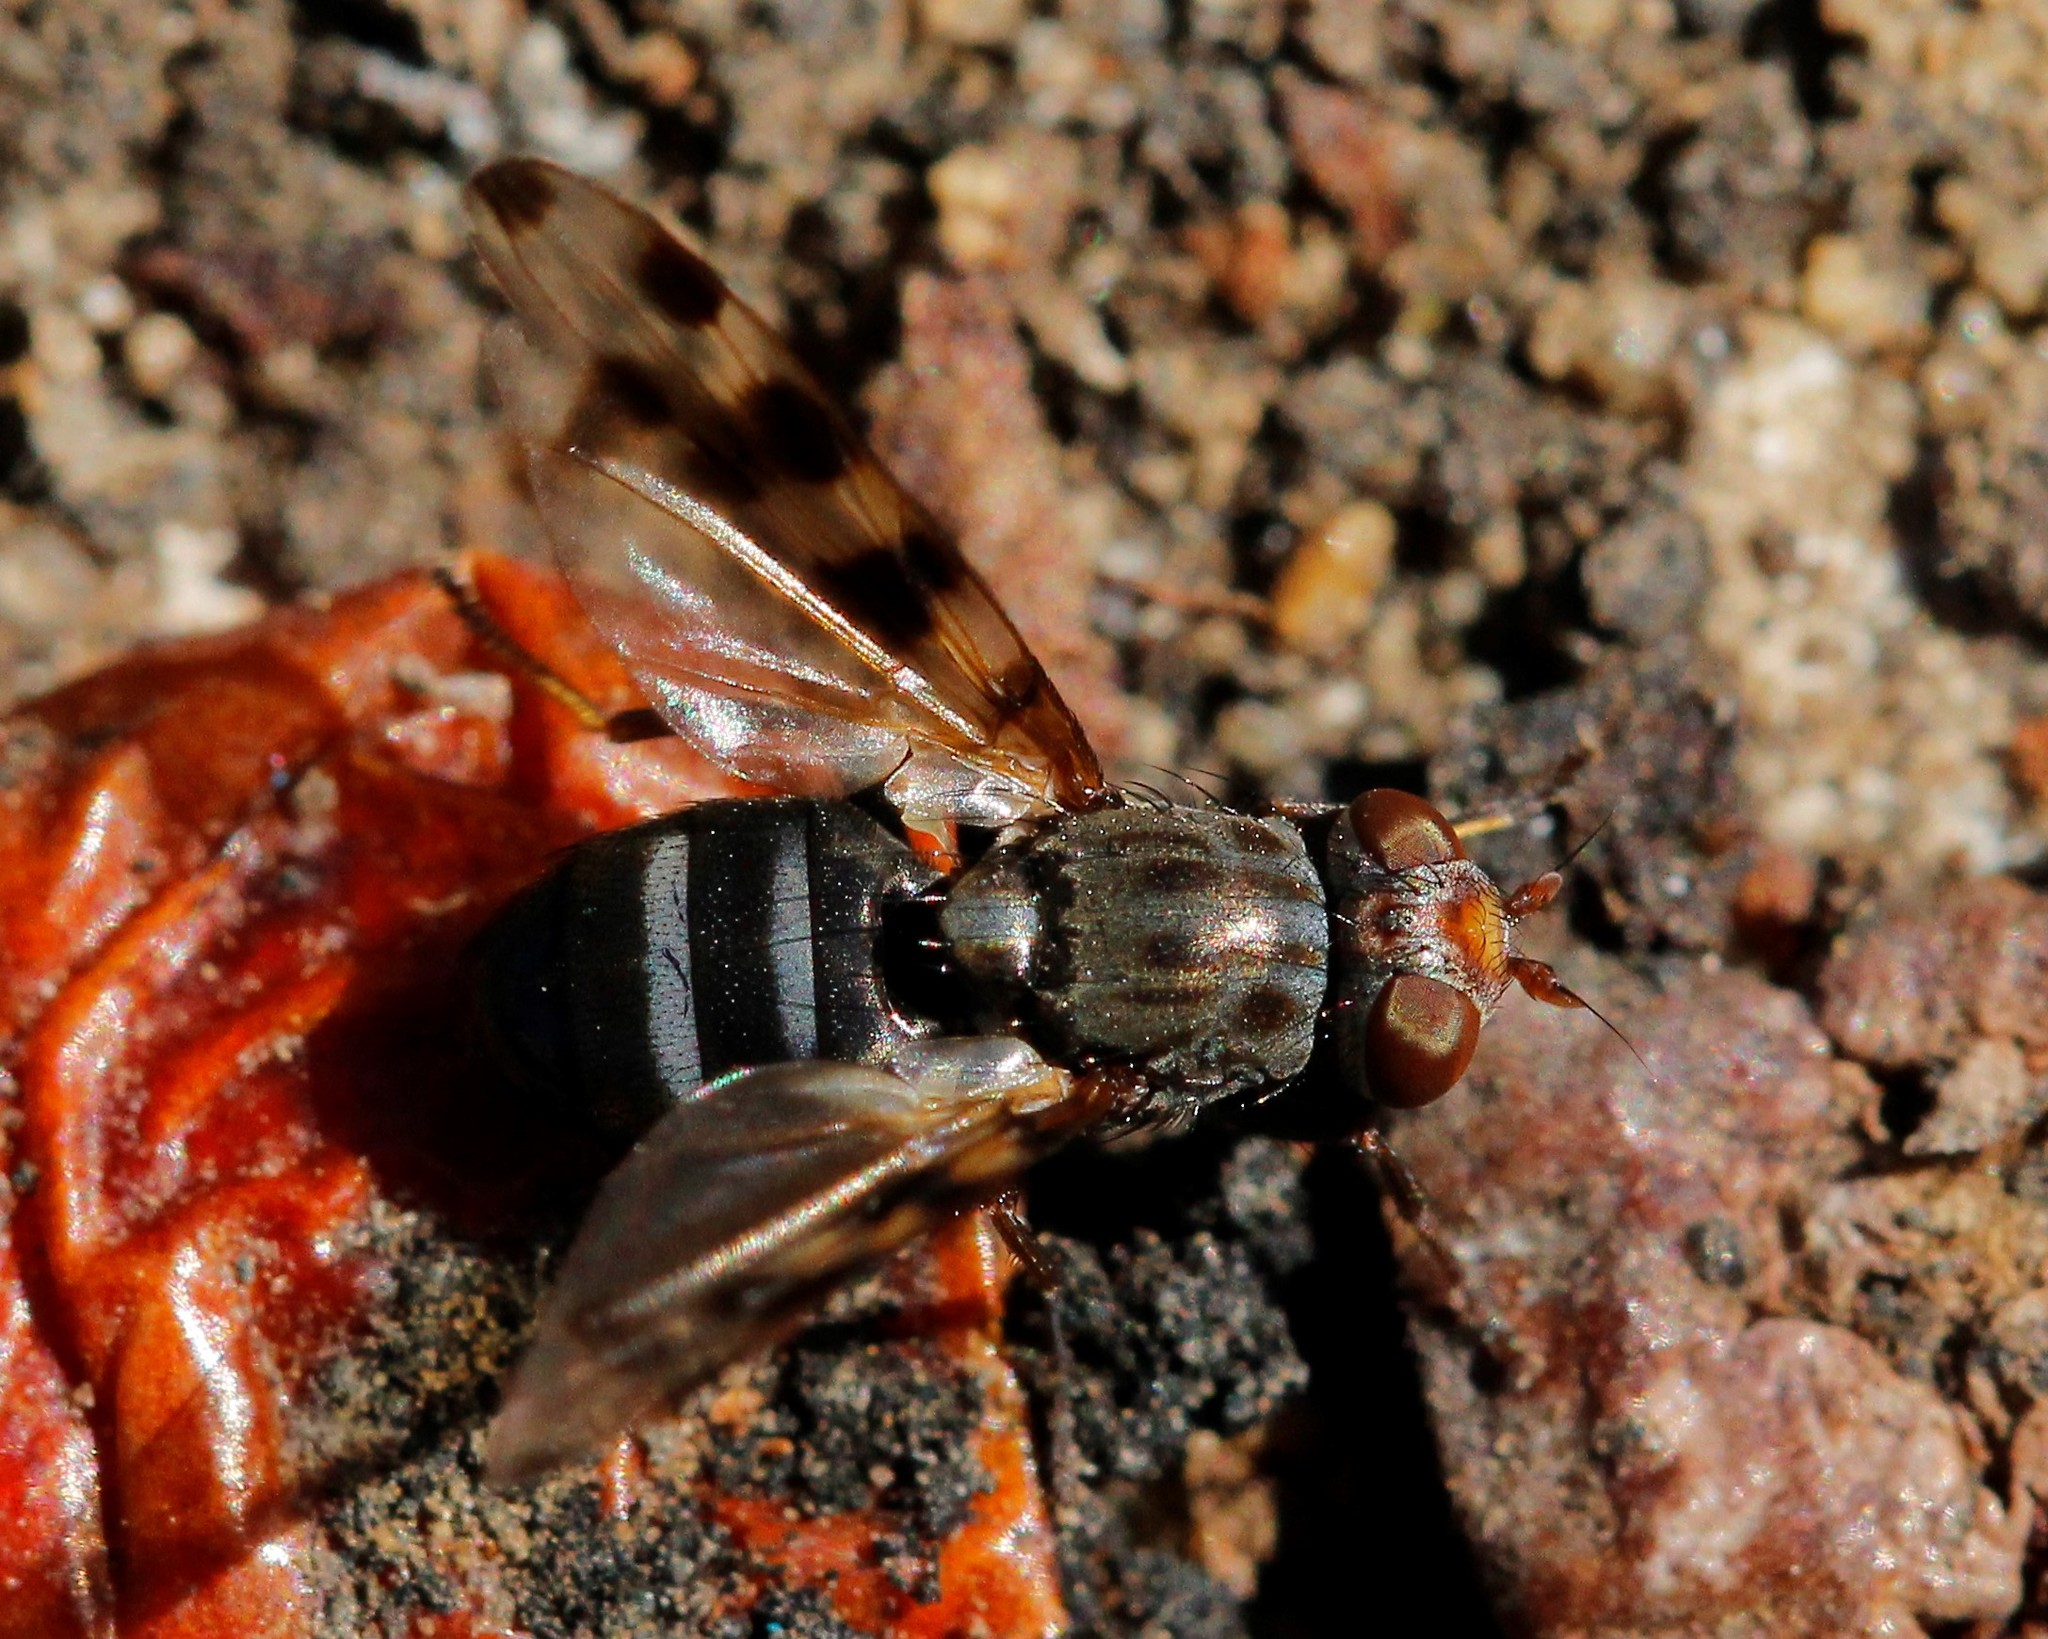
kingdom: Animalia
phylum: Arthropoda
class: Insecta
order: Diptera
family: Ulidiidae
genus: Ceroxys
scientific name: Ceroxys hyalinata
